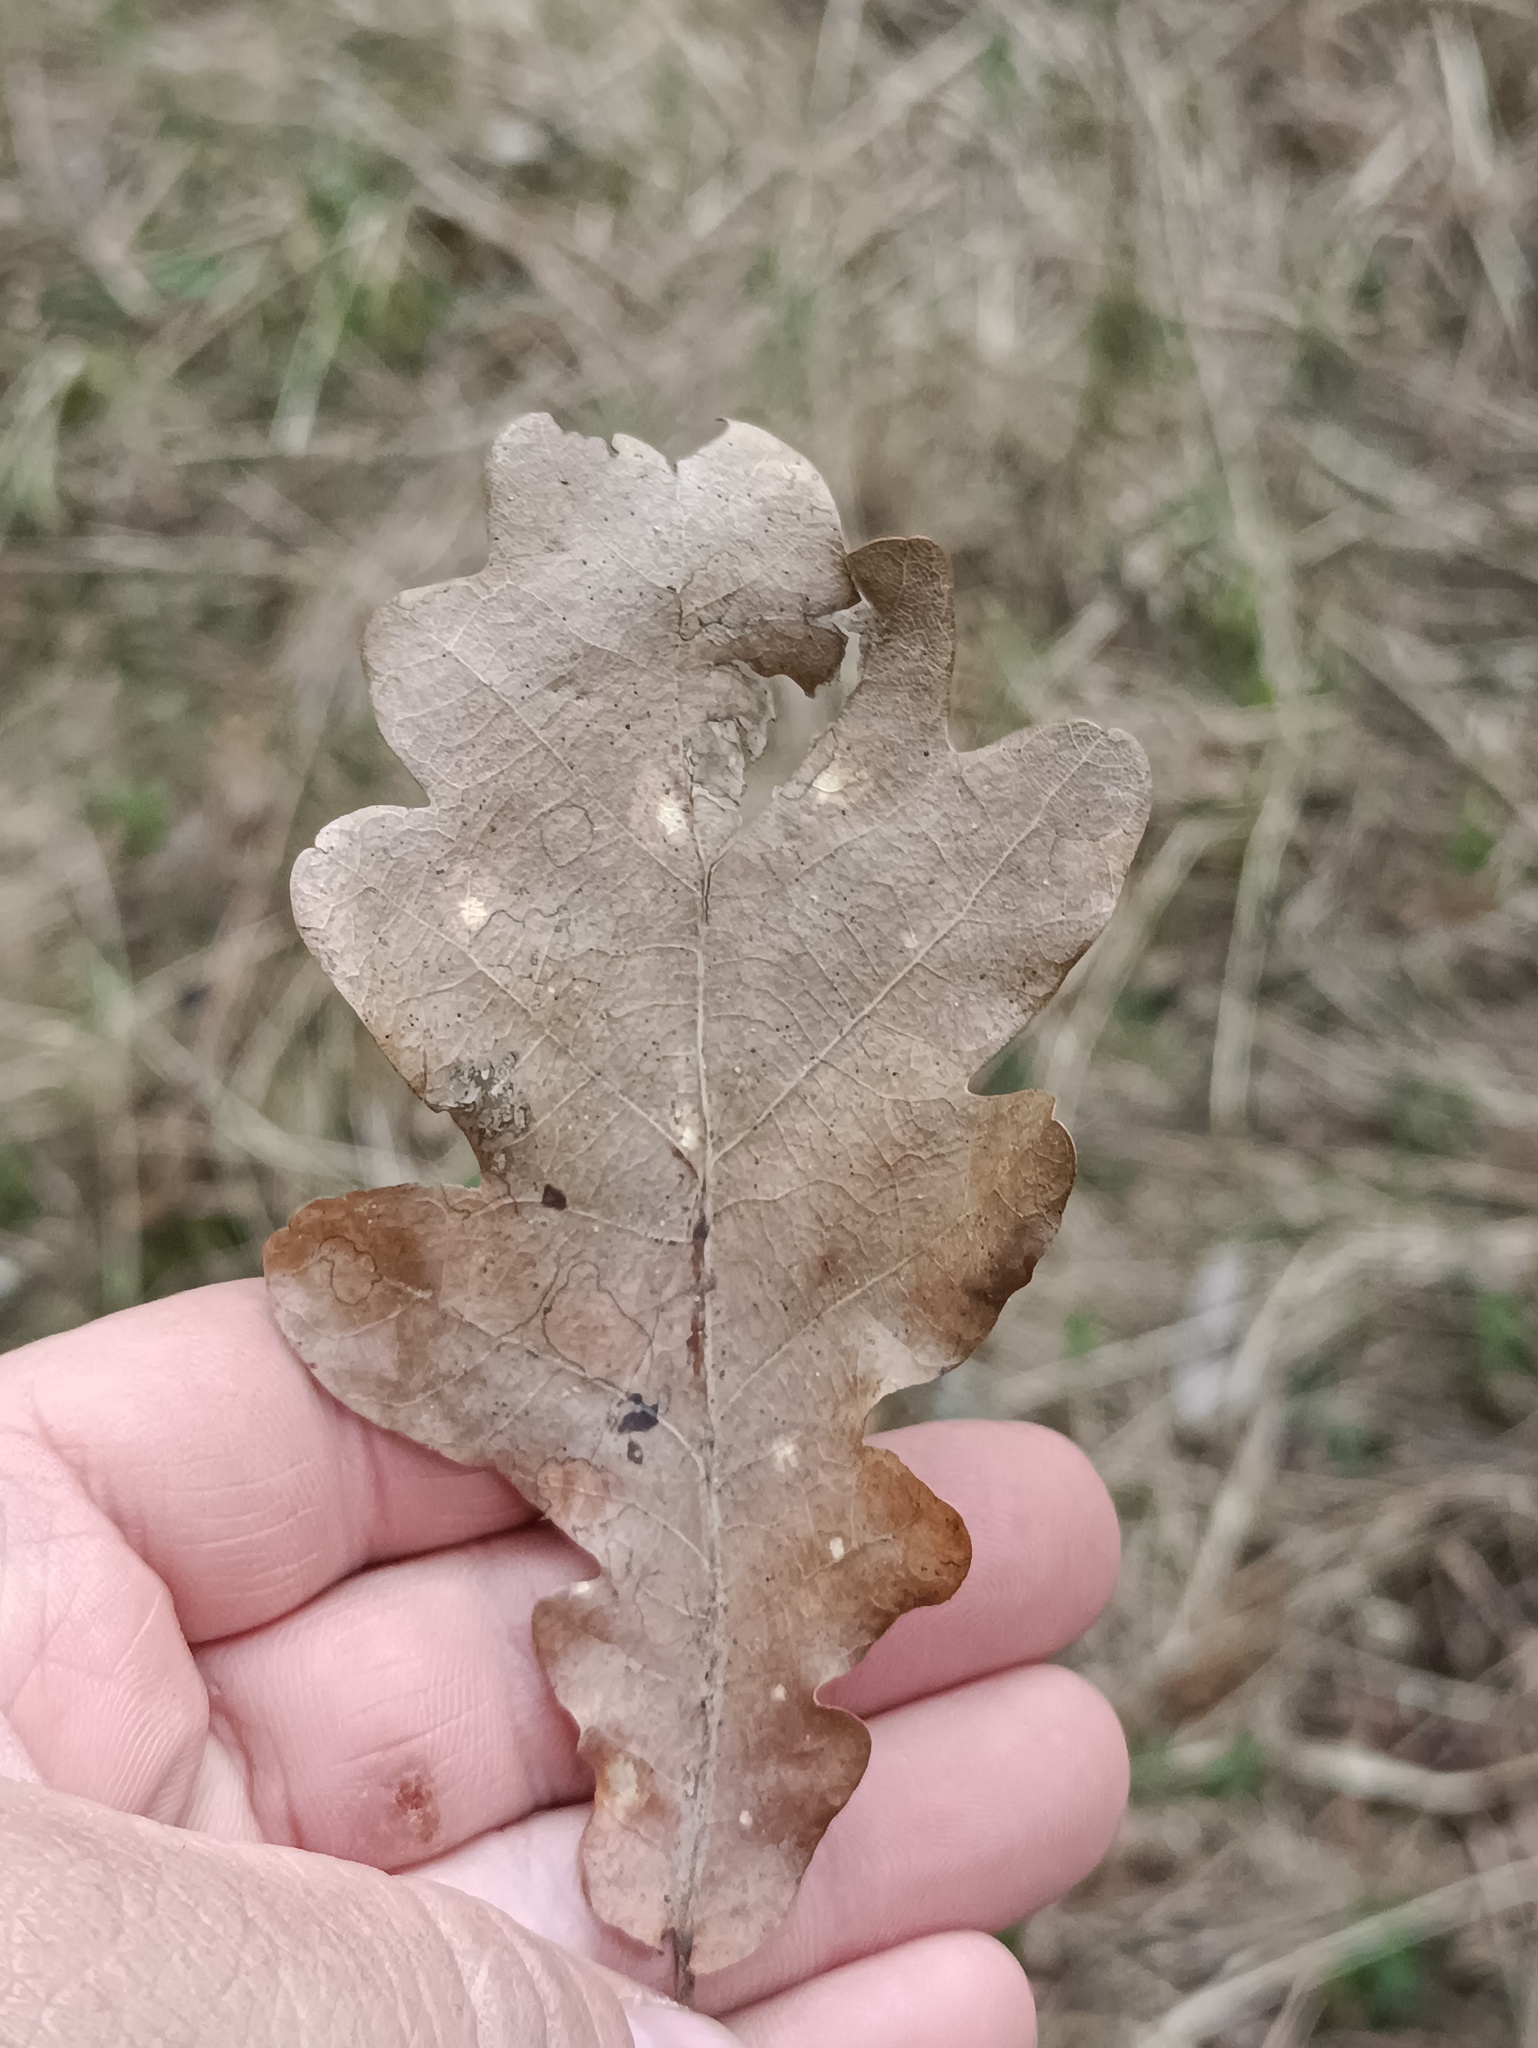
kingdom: Plantae
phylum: Tracheophyta
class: Magnoliopsida
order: Fagales
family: Fagaceae
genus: Quercus
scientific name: Quercus robur
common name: Pedunculate oak
